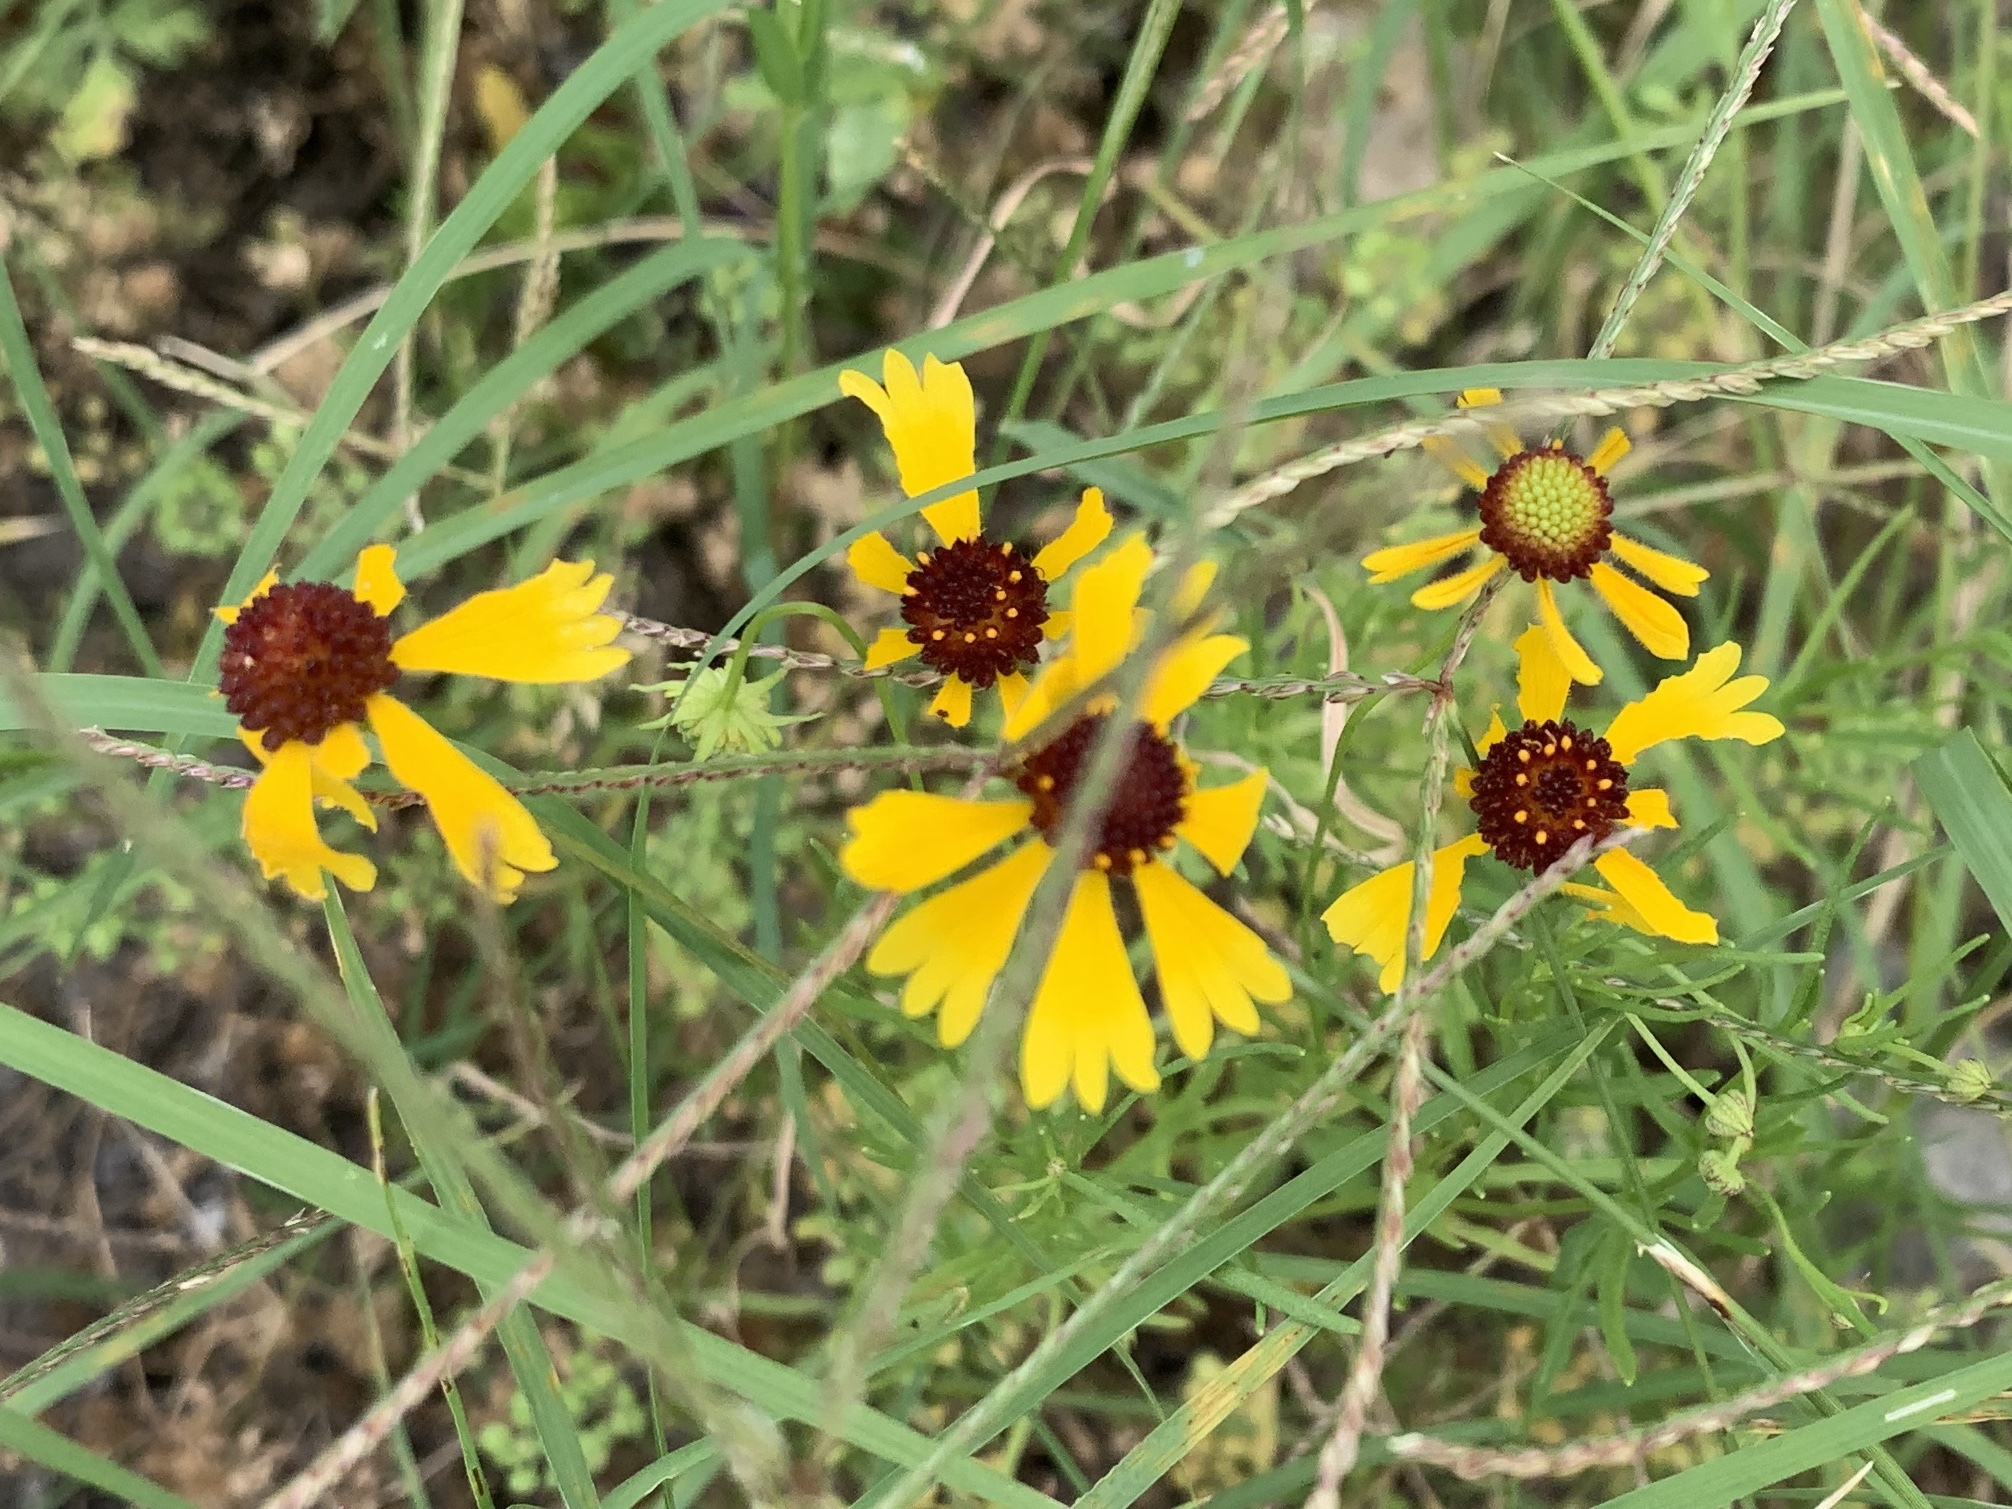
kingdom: Plantae
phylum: Tracheophyta
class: Magnoliopsida
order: Asterales
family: Asteraceae
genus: Helenium
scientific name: Helenium amarum
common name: Bitter sneezeweed
